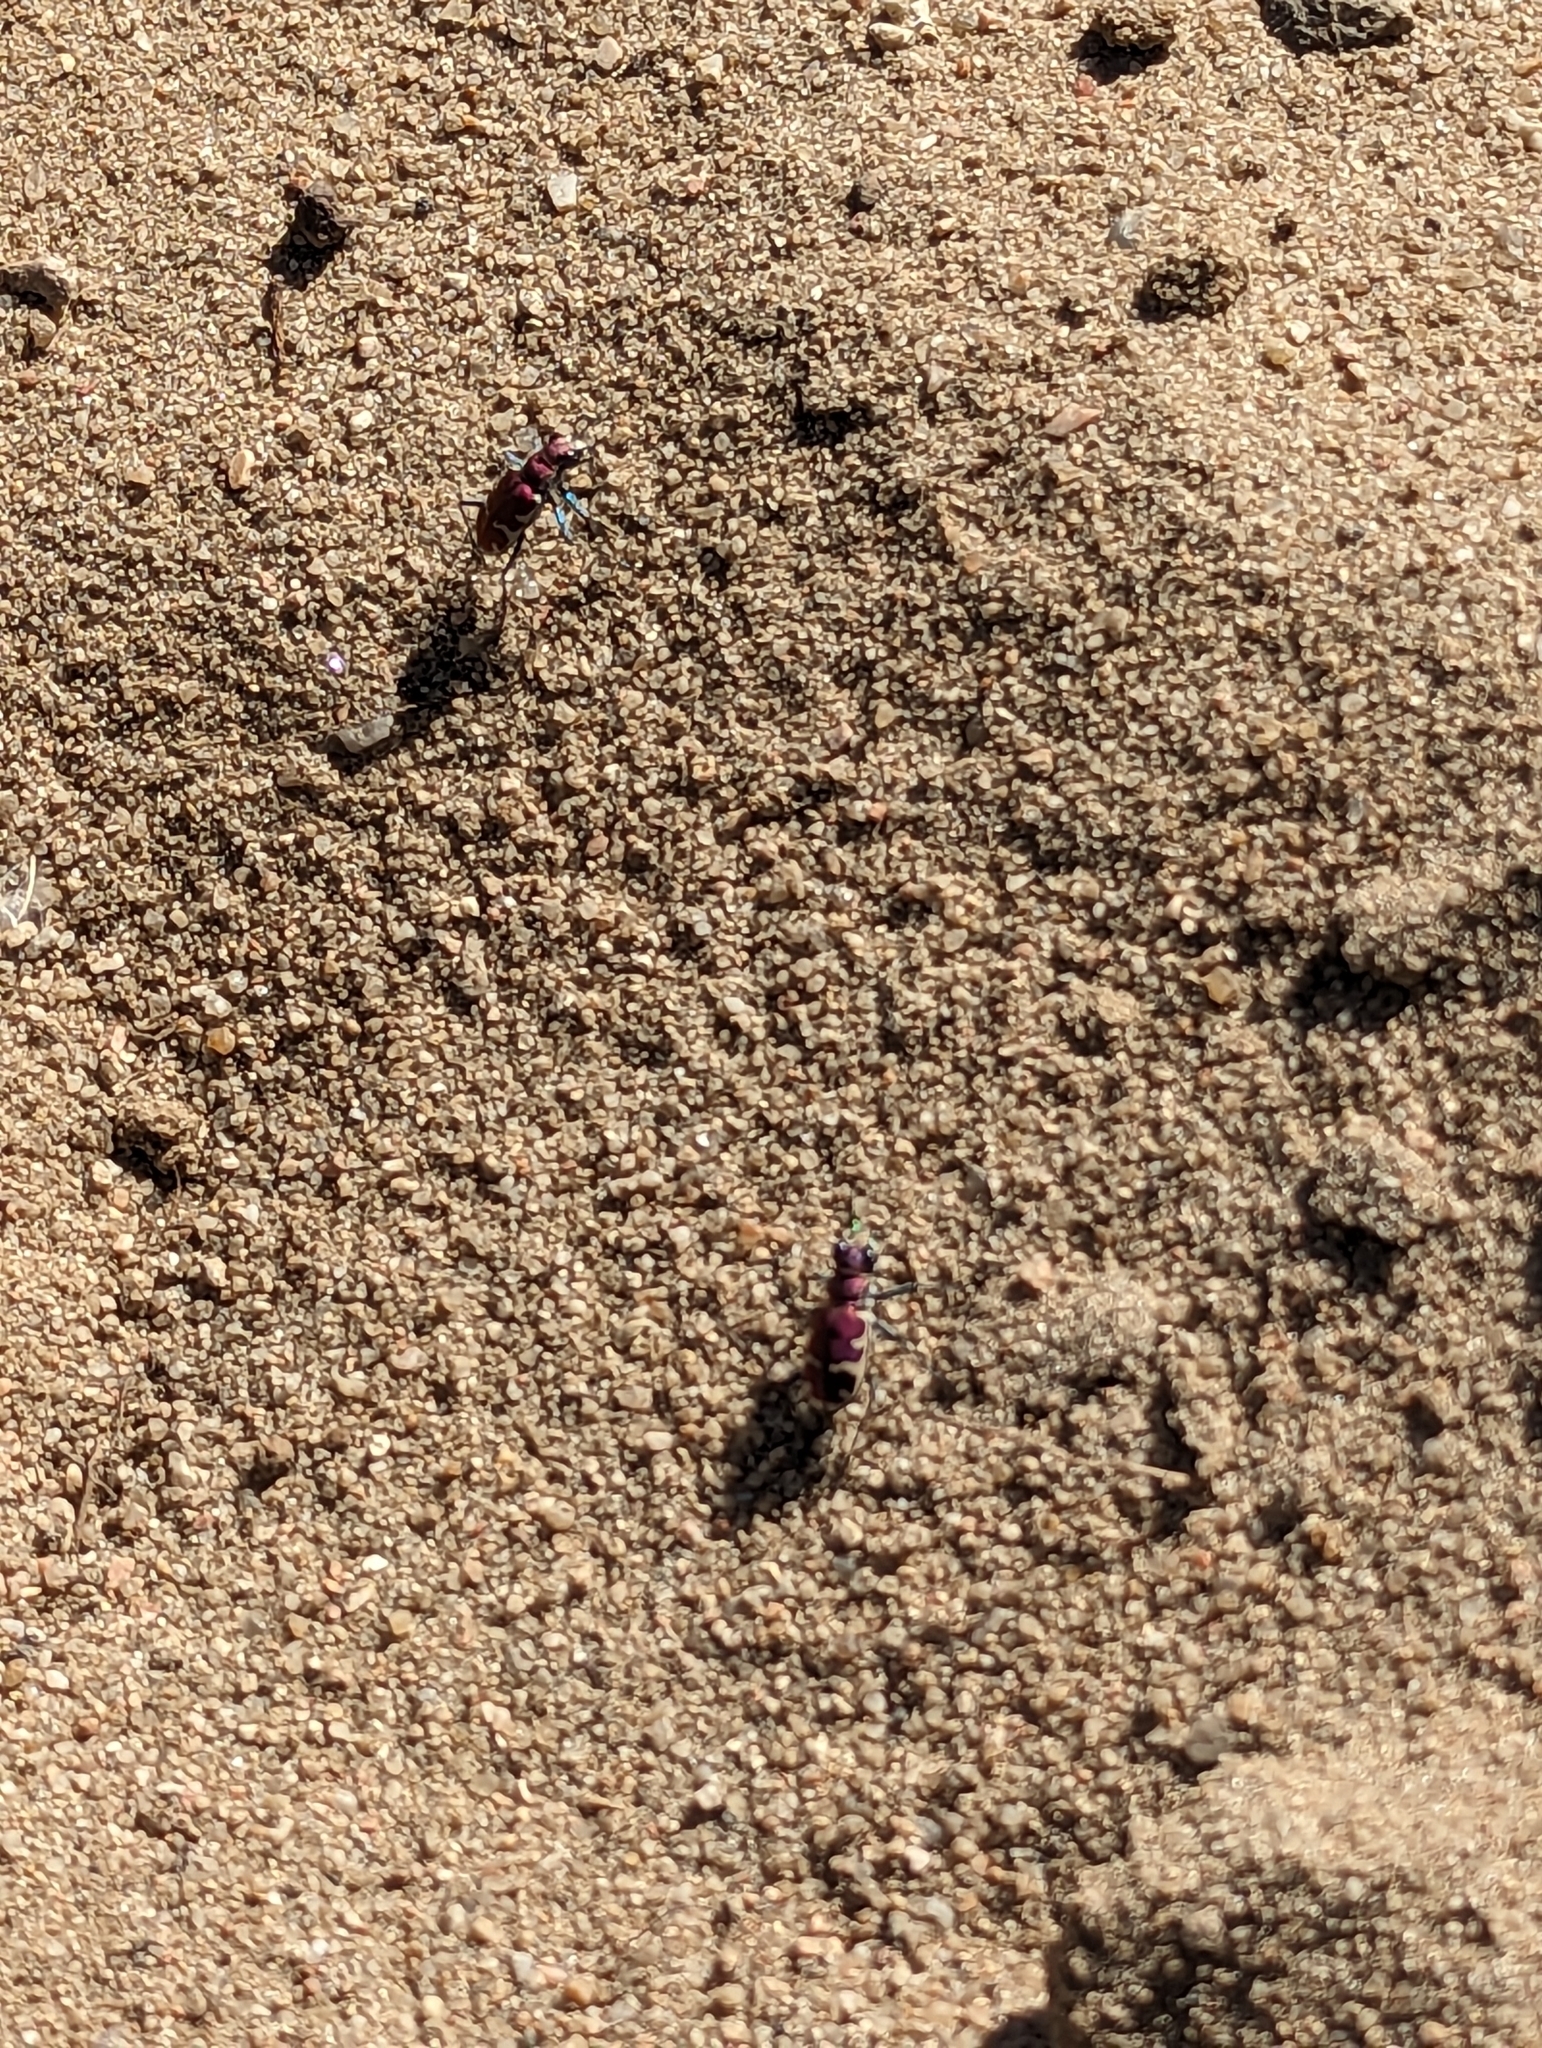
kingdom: Animalia
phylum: Arthropoda
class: Insecta
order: Coleoptera
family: Carabidae
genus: Cicindela
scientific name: Cicindela formosa
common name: Big sand tiger beetle
